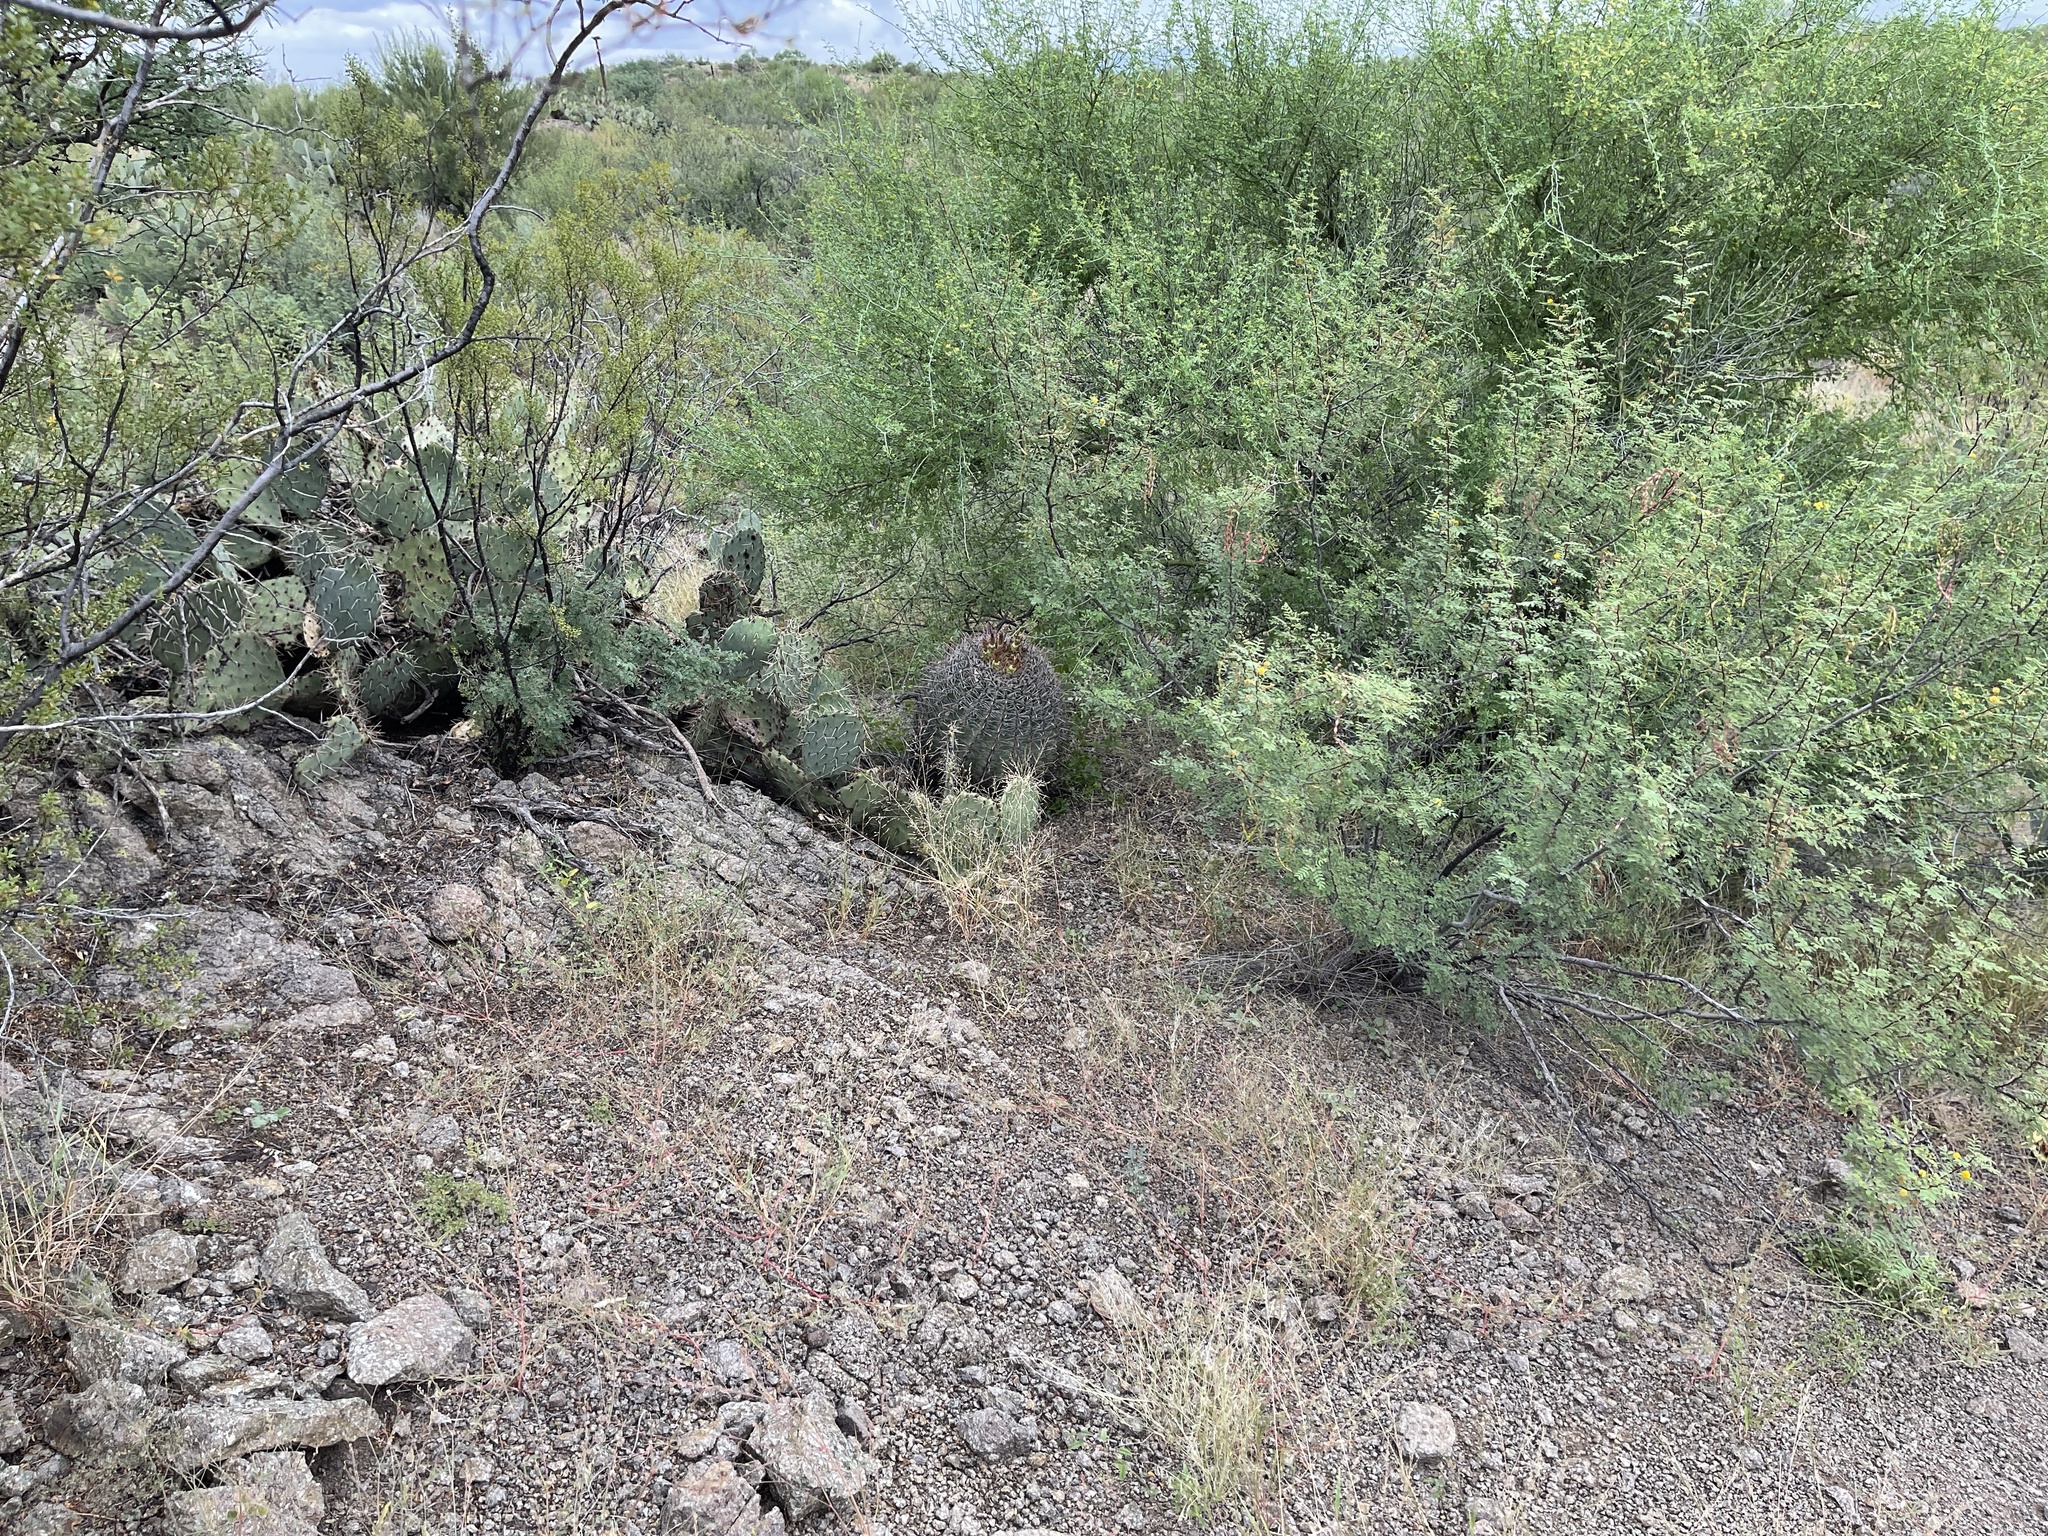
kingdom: Plantae
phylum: Tracheophyta
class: Magnoliopsida
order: Caryophyllales
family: Cactaceae
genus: Ferocactus
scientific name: Ferocactus wislizeni
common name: Candy barrel cactus
